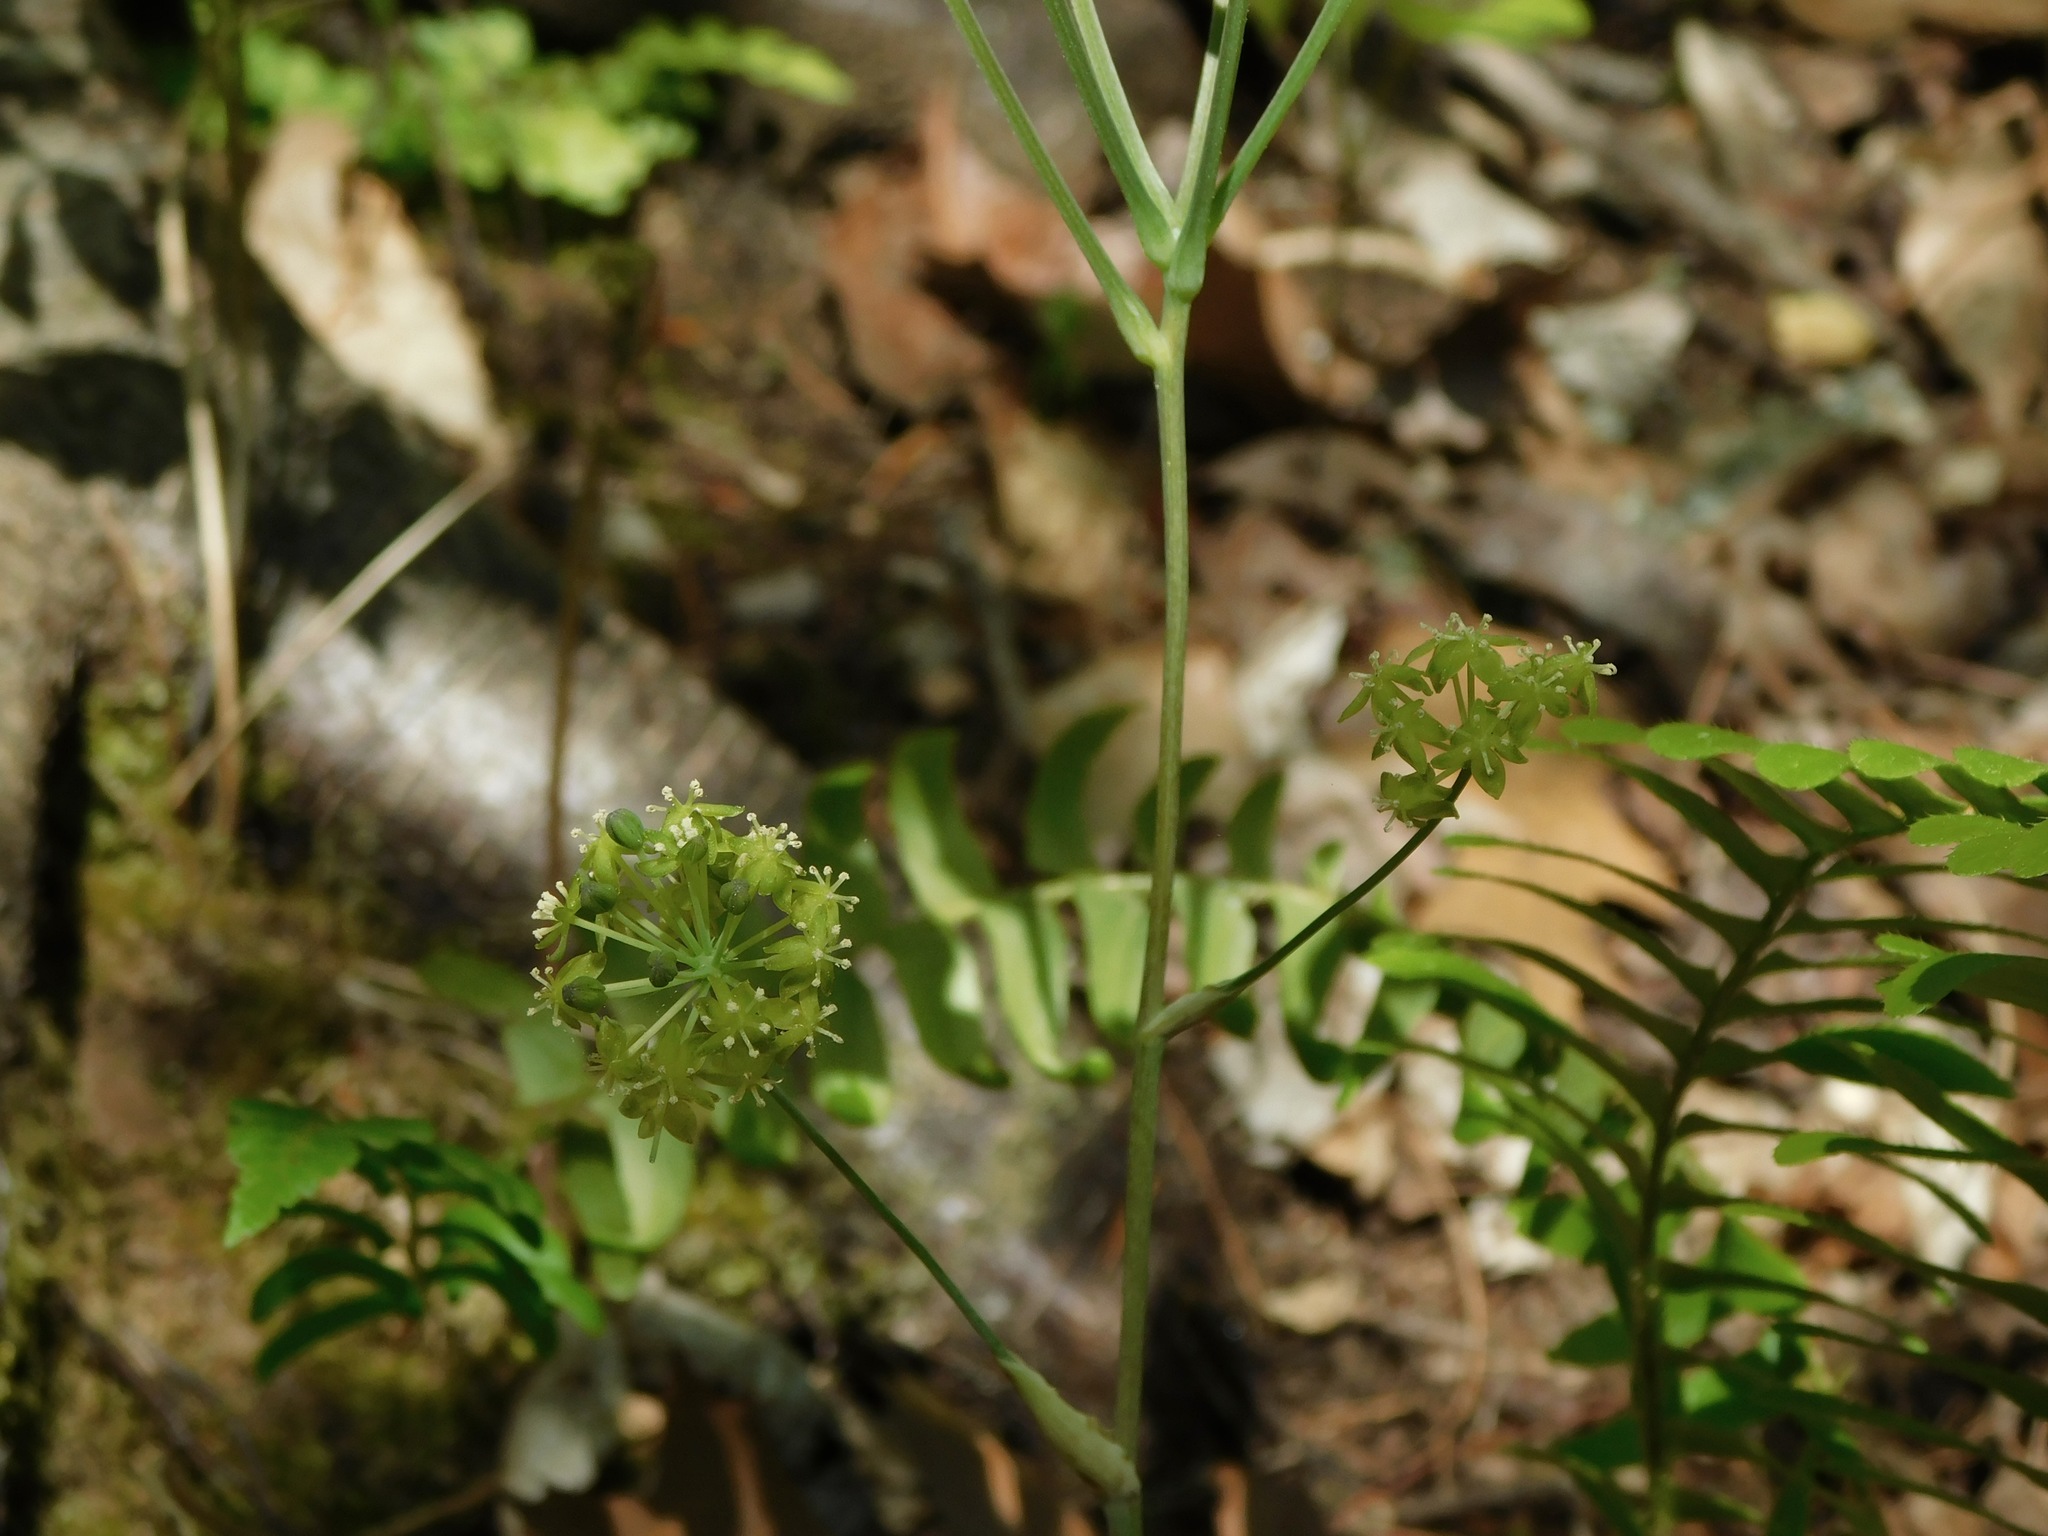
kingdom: Plantae
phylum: Tracheophyta
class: Liliopsida
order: Liliales
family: Smilacaceae
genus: Smilax
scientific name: Smilax hugeri
